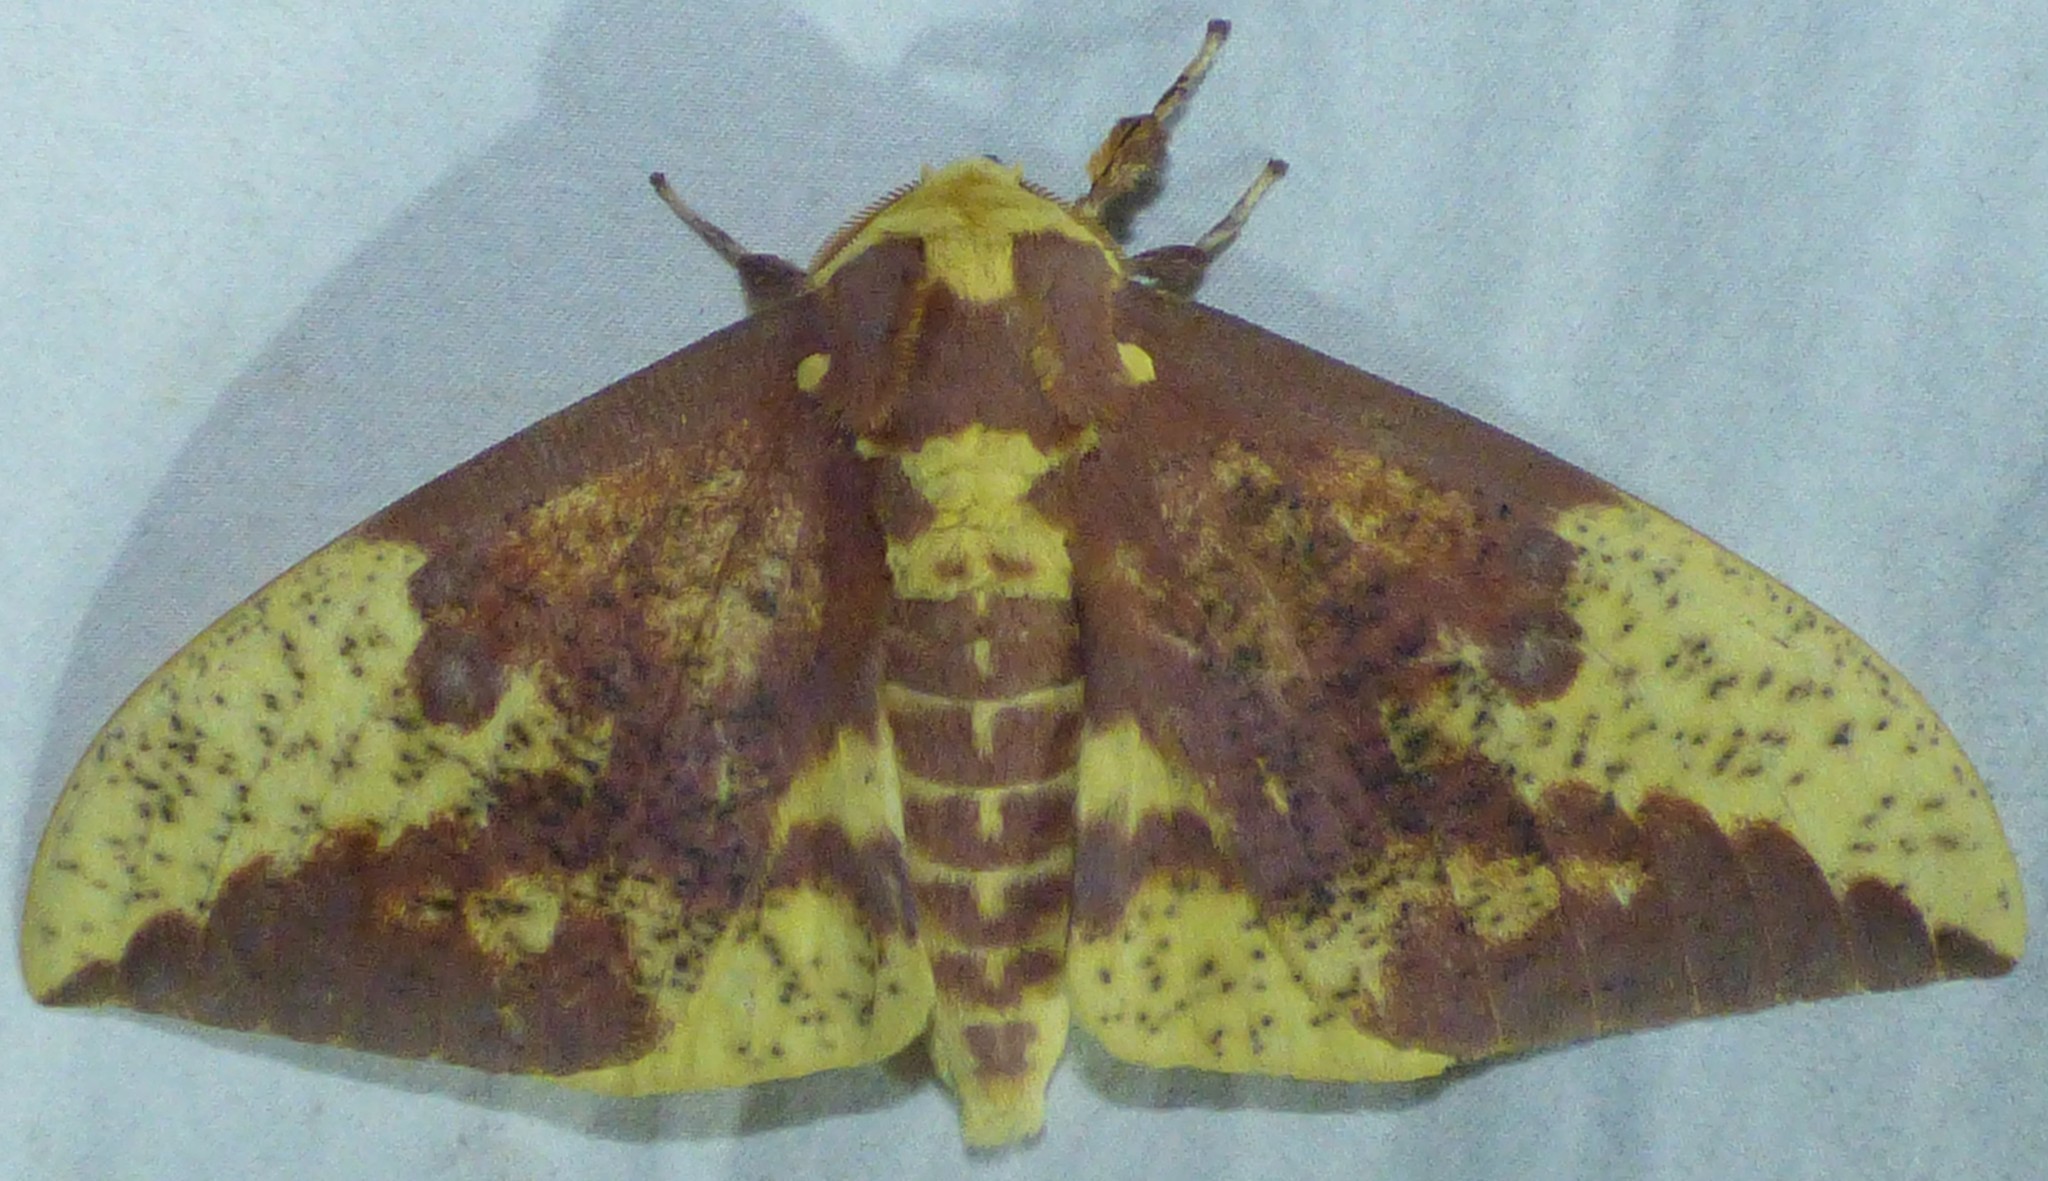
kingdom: Animalia
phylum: Arthropoda
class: Insecta
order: Lepidoptera
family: Saturniidae
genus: Eacles
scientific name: Eacles imperialis
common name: Imperial moth
